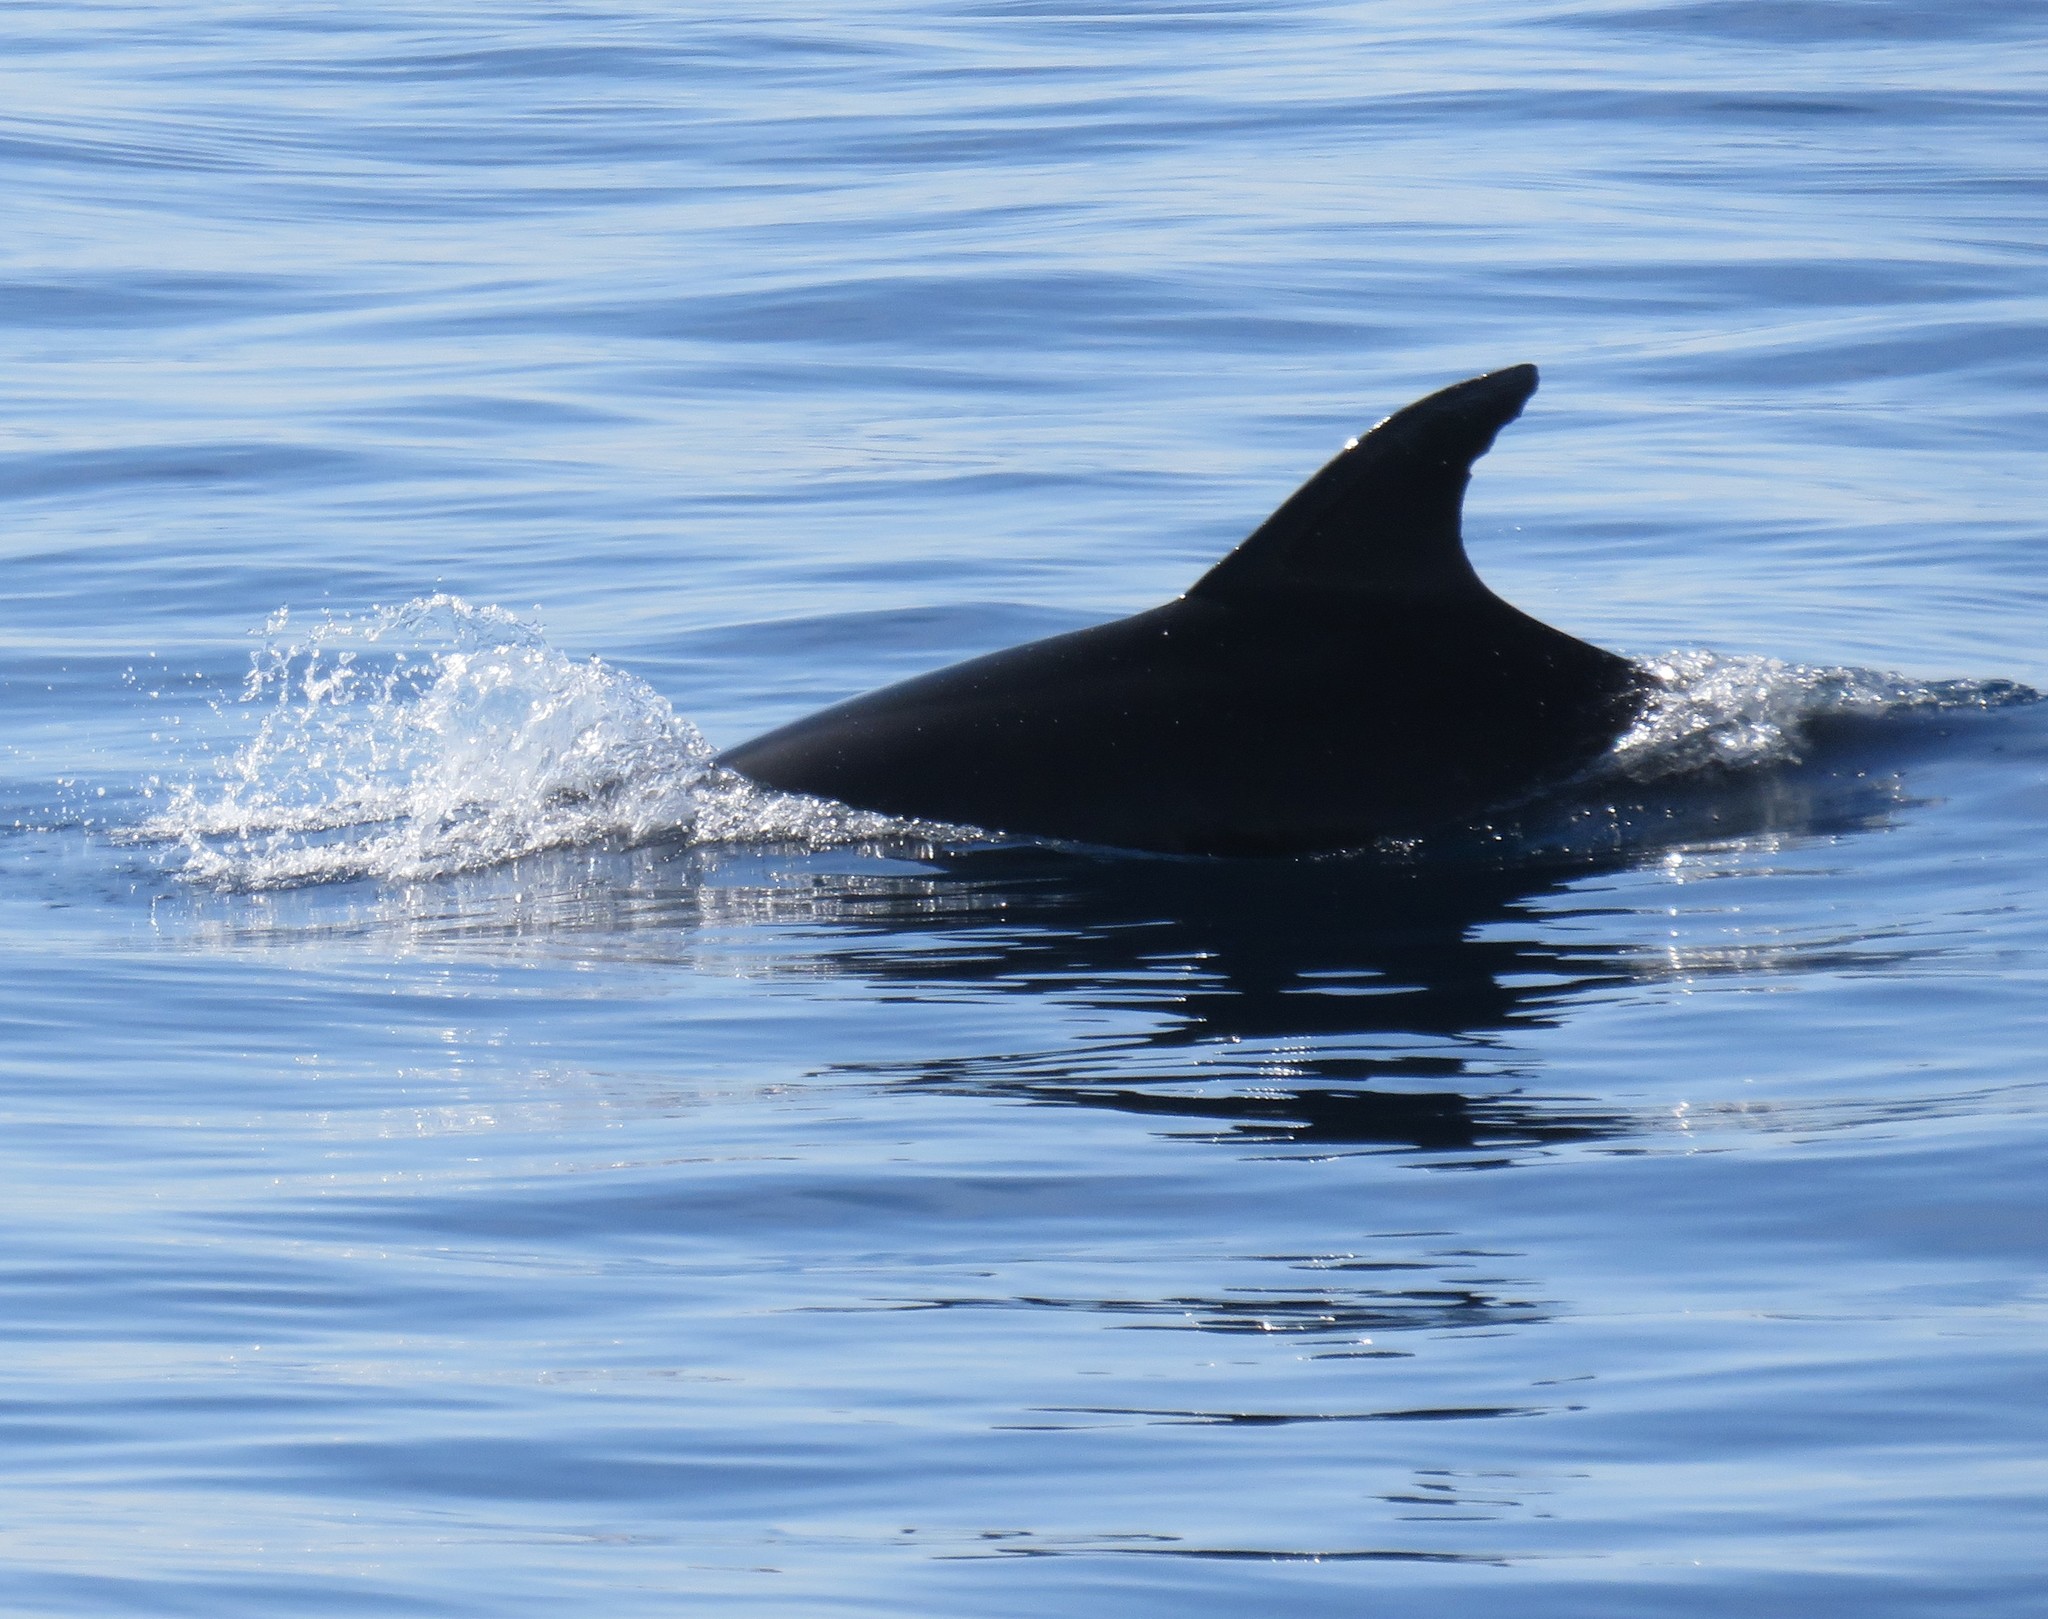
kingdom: Animalia
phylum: Chordata
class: Mammalia
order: Cetacea
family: Delphinidae
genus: Tursiops
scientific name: Tursiops truncatus
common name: Bottlenose dolphin
